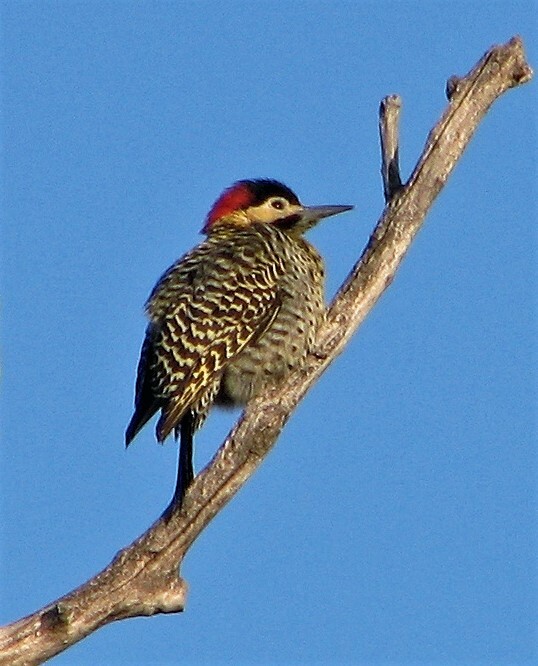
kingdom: Animalia
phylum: Chordata
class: Aves
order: Piciformes
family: Picidae
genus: Colaptes
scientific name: Colaptes melanochloros
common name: Green-barred woodpecker
